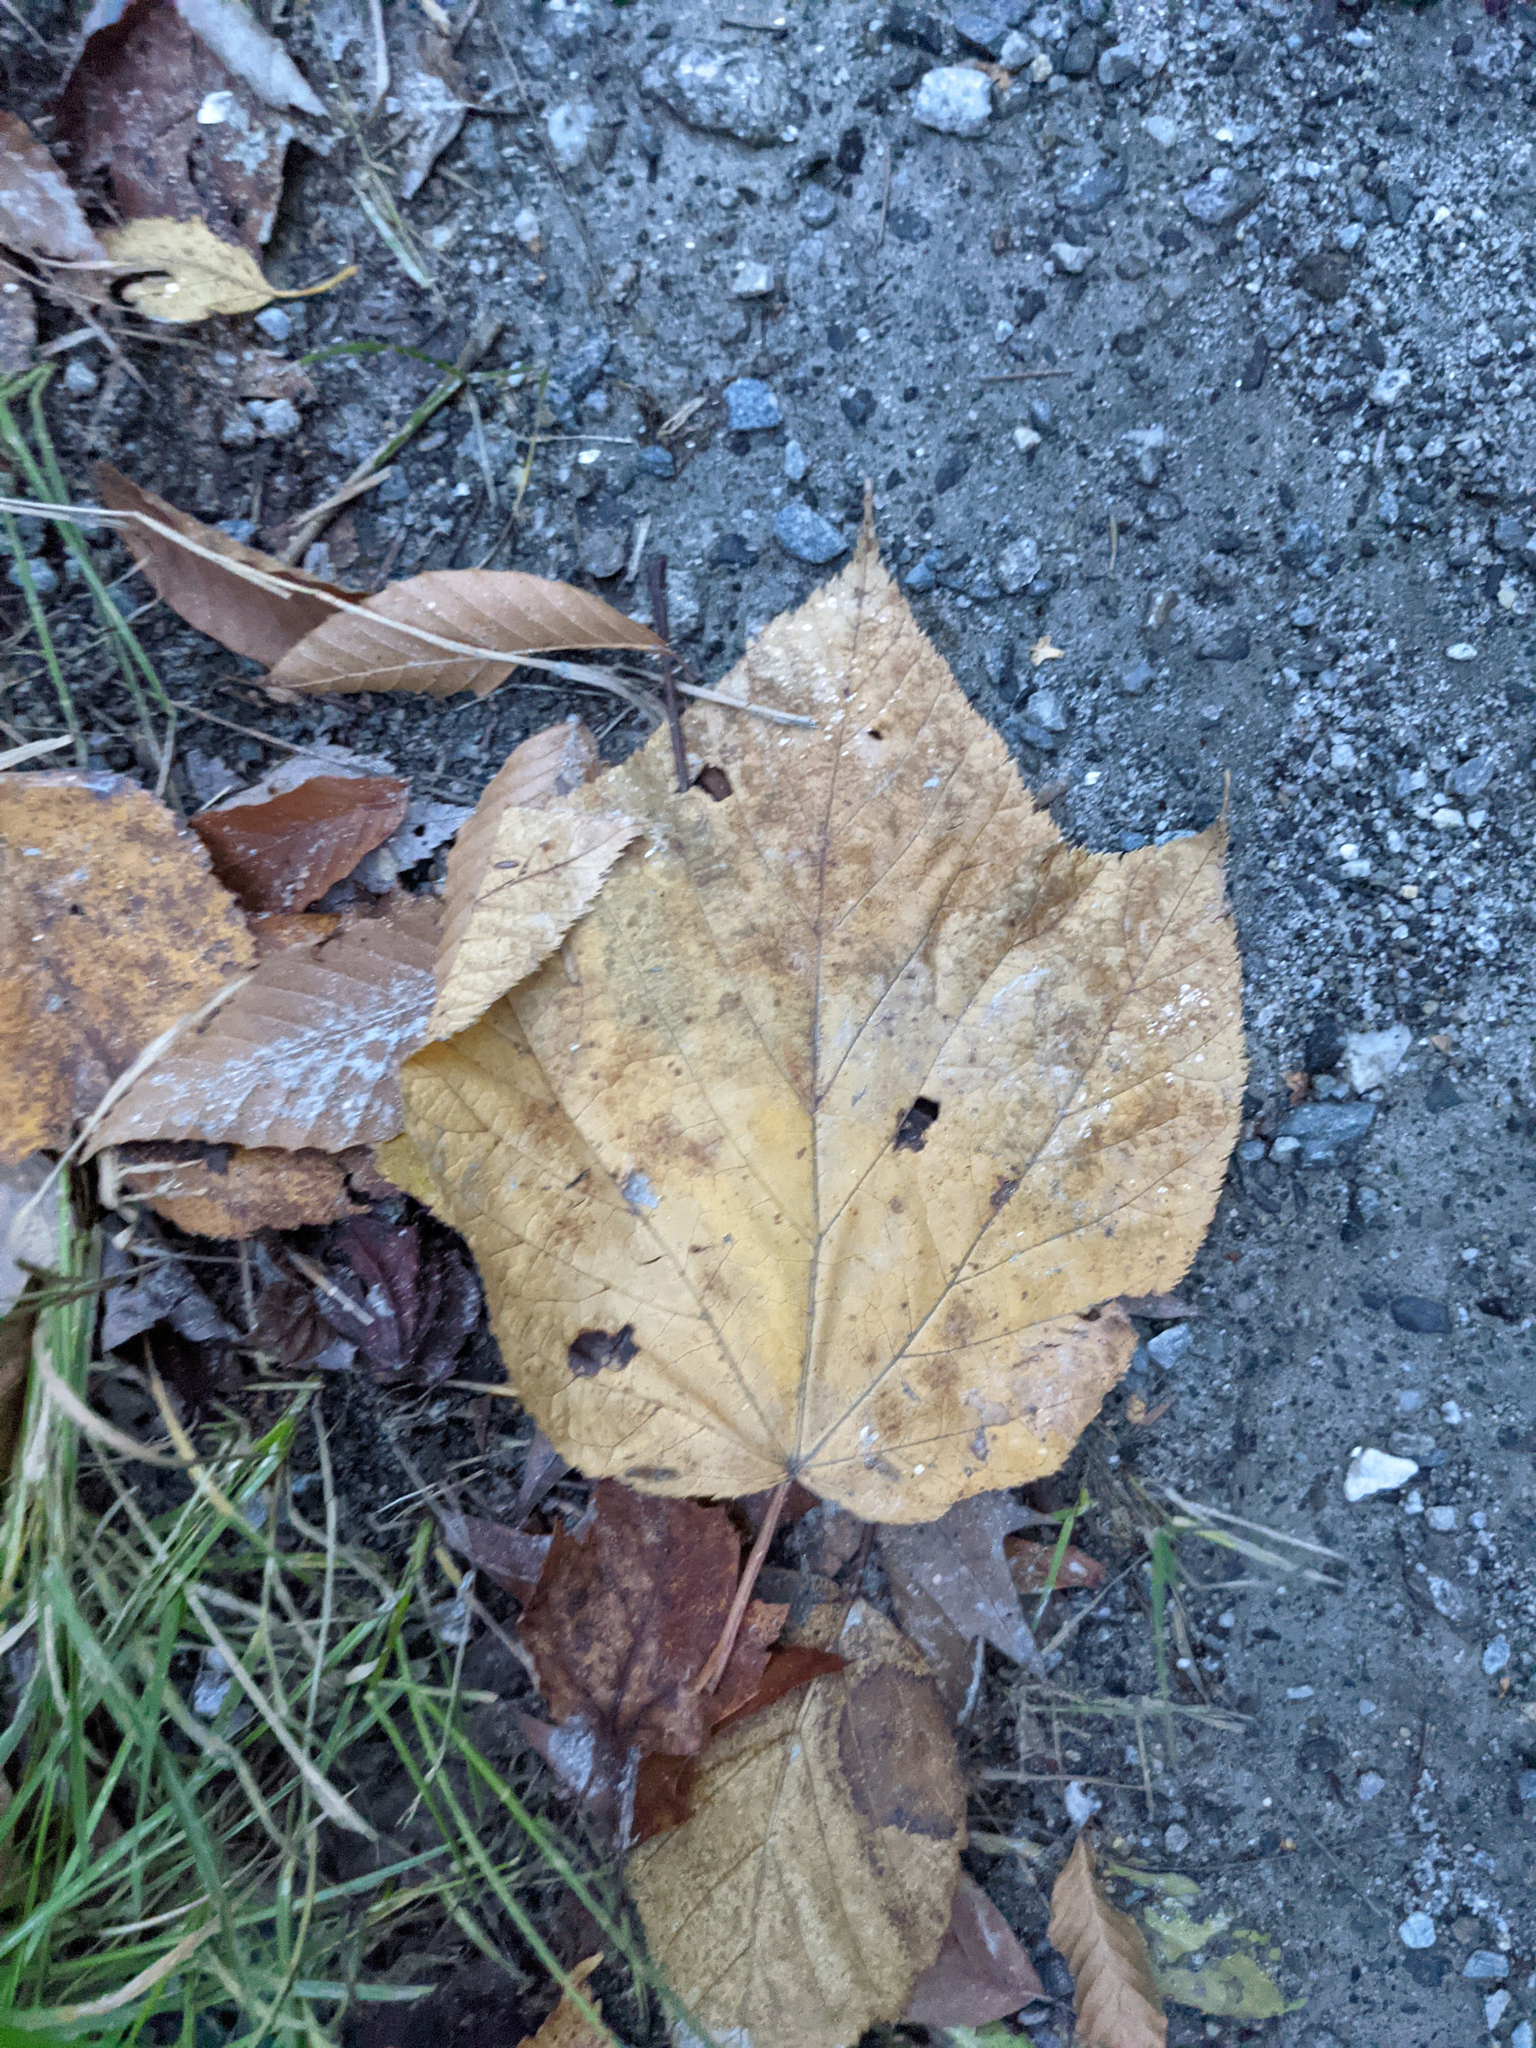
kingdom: Plantae
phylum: Tracheophyta
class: Magnoliopsida
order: Sapindales
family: Sapindaceae
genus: Acer
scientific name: Acer pensylvanicum
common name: Moosewood
